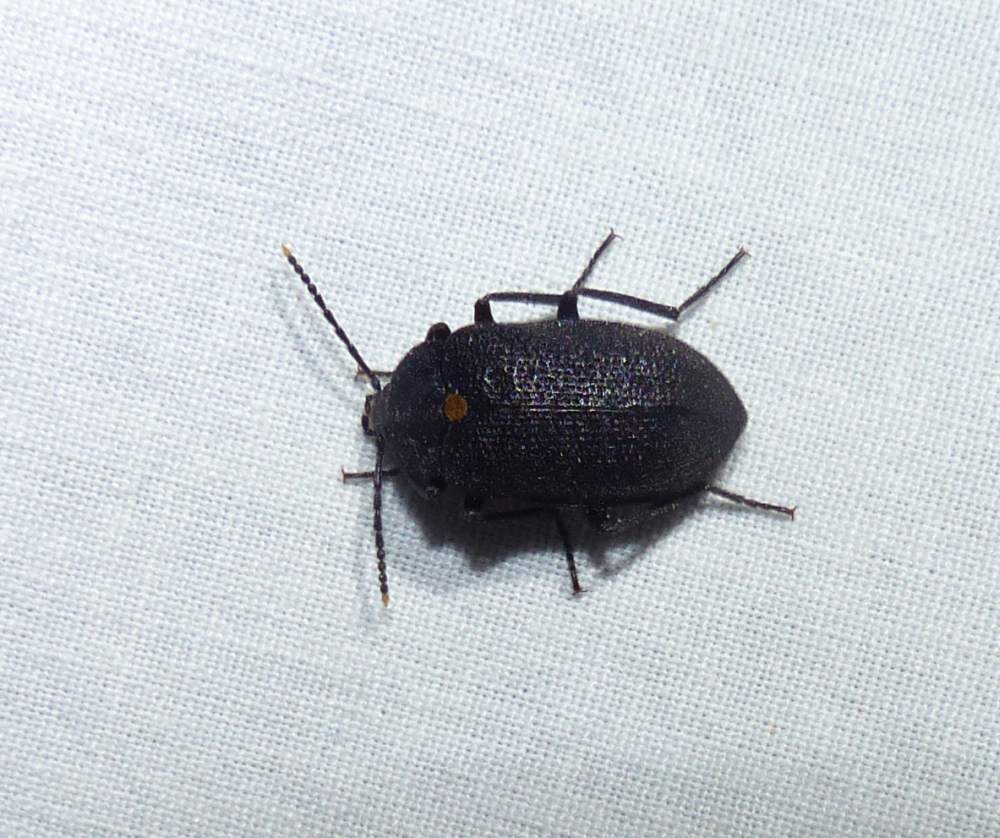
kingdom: Animalia
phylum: Arthropoda
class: Insecta
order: Coleoptera
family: Tetratomidae
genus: Penthe
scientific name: Penthe obliquata
